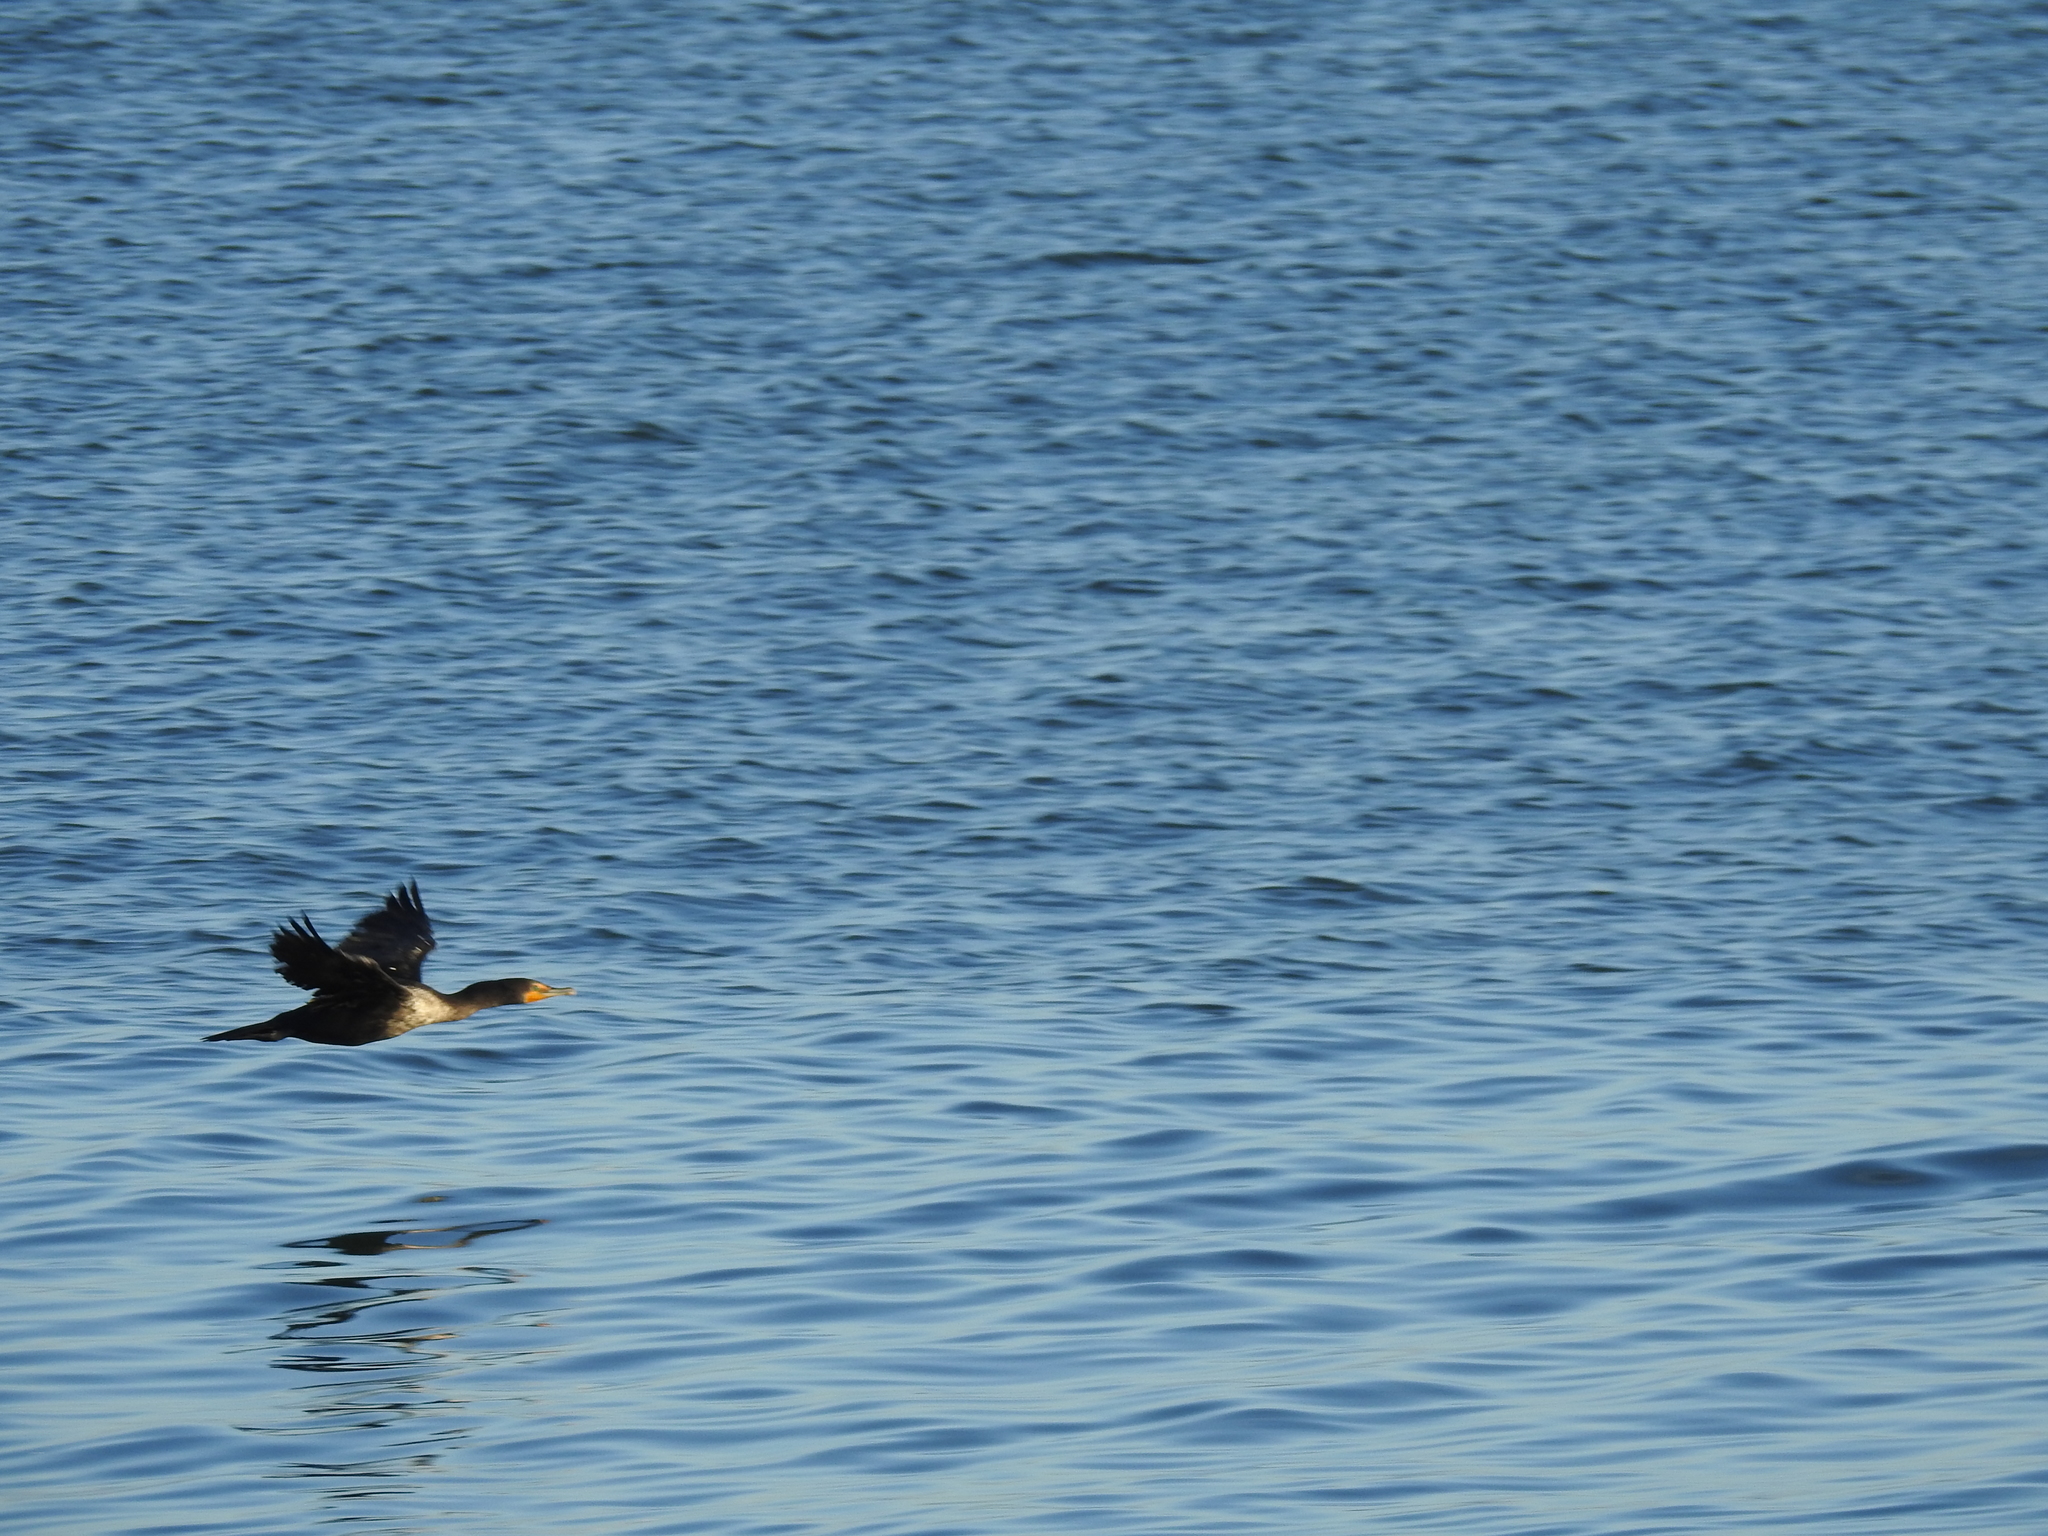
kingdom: Animalia
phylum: Chordata
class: Aves
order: Suliformes
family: Phalacrocoracidae
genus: Phalacrocorax
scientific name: Phalacrocorax auritus
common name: Double-crested cormorant
